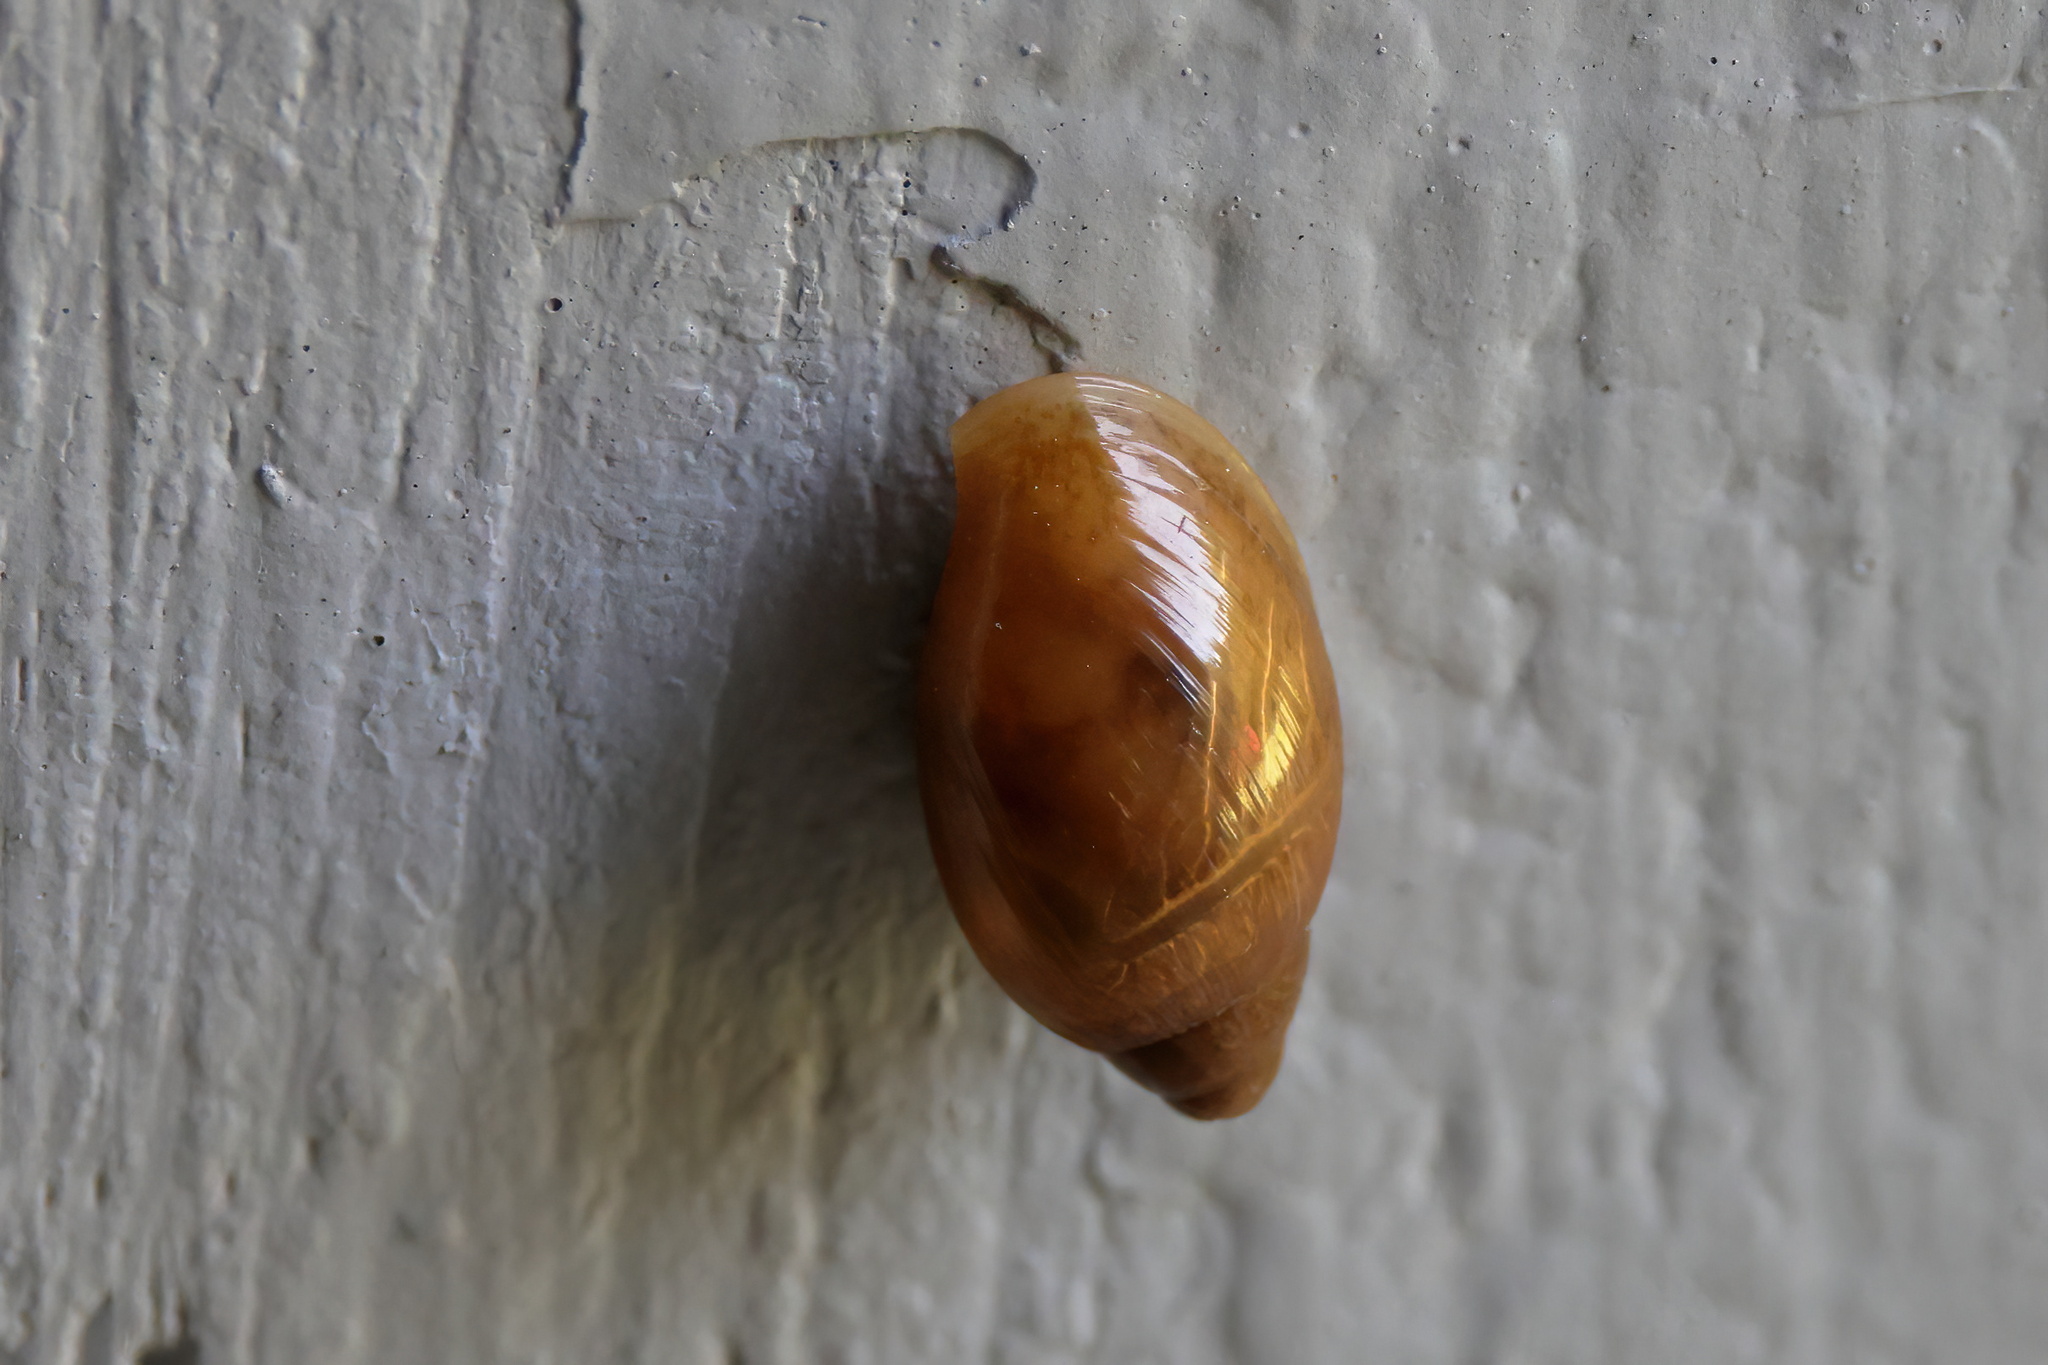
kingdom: Animalia
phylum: Mollusca
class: Gastropoda
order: Stylommatophora
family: Spiraxidae
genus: Euglandina
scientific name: Euglandina rosea
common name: Rosy wolfsnail
